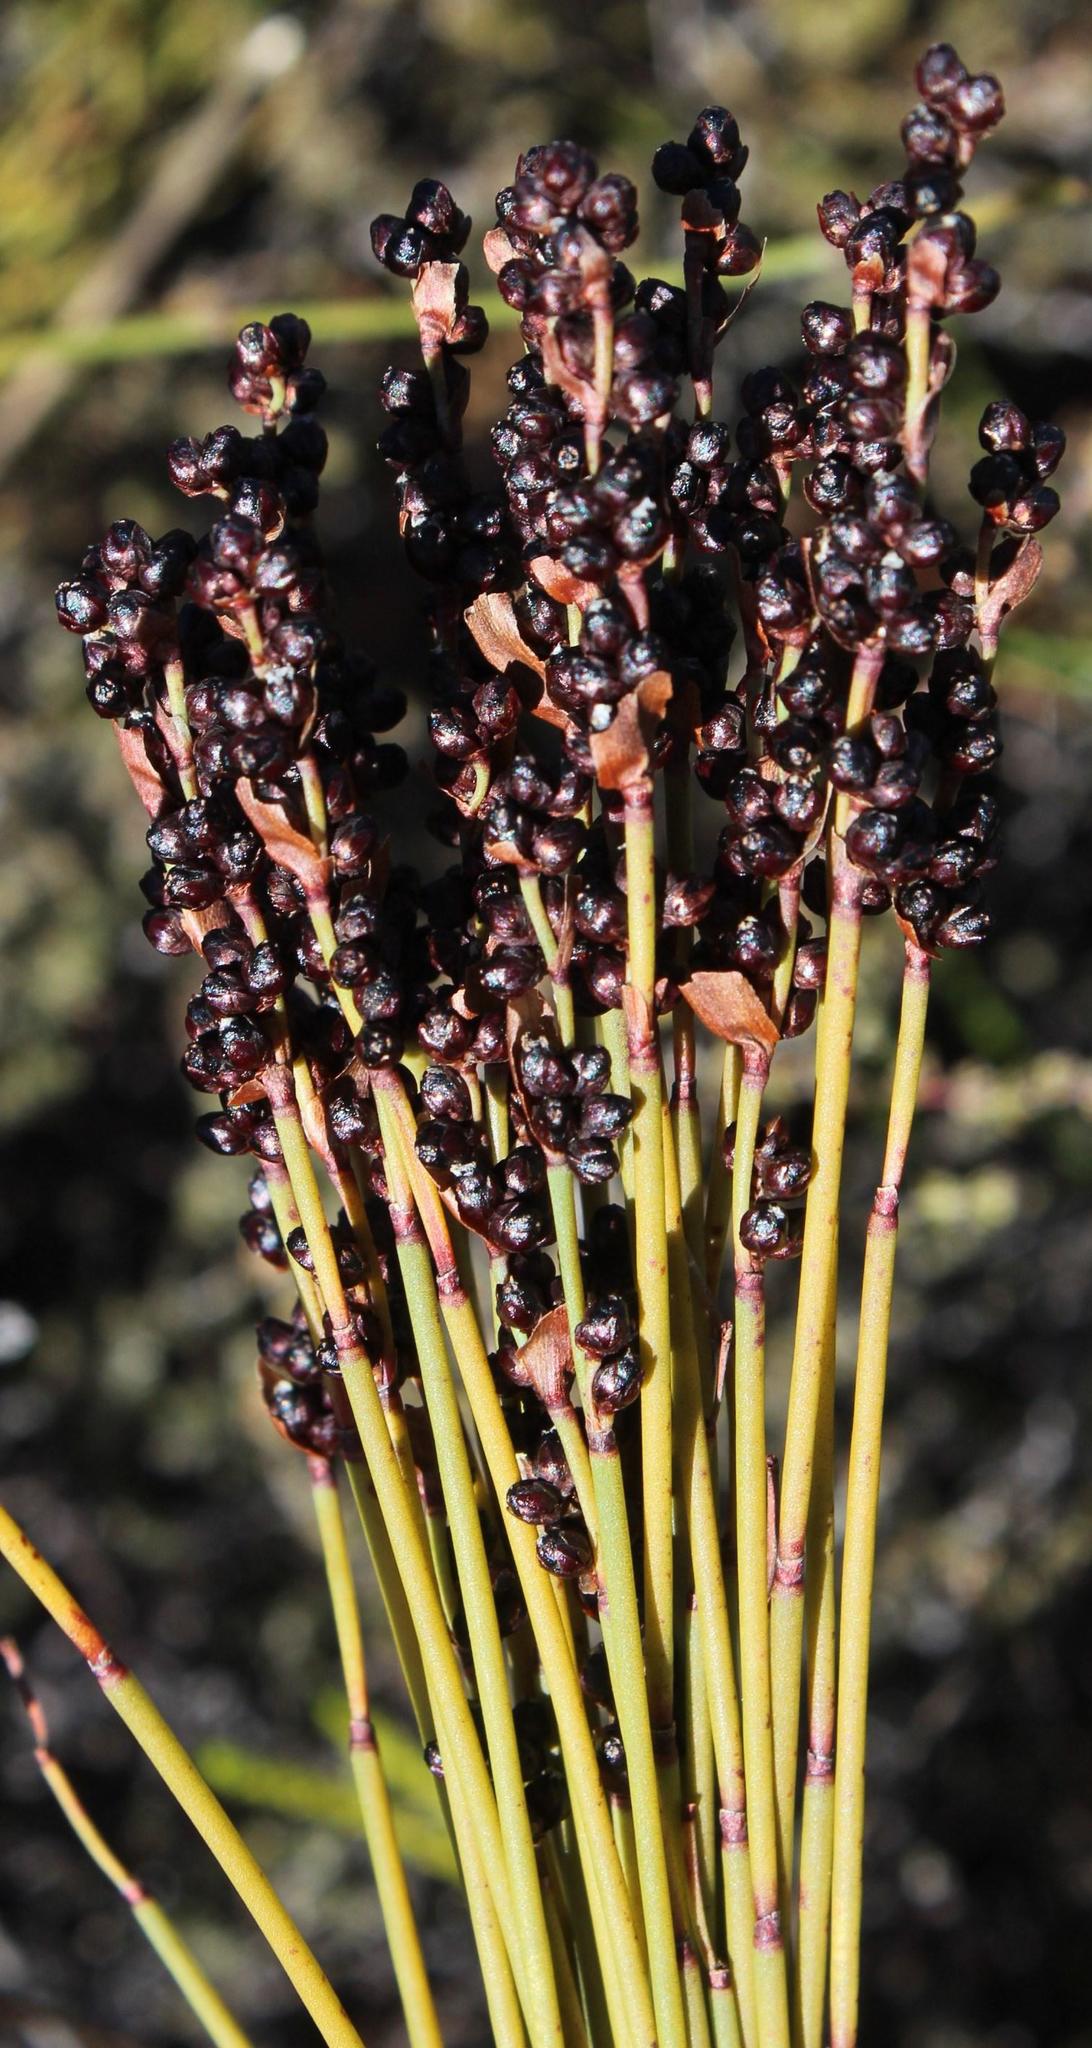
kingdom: Plantae
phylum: Tracheophyta
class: Liliopsida
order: Poales
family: Restionaceae
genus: Elegia
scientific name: Elegia galpinii
